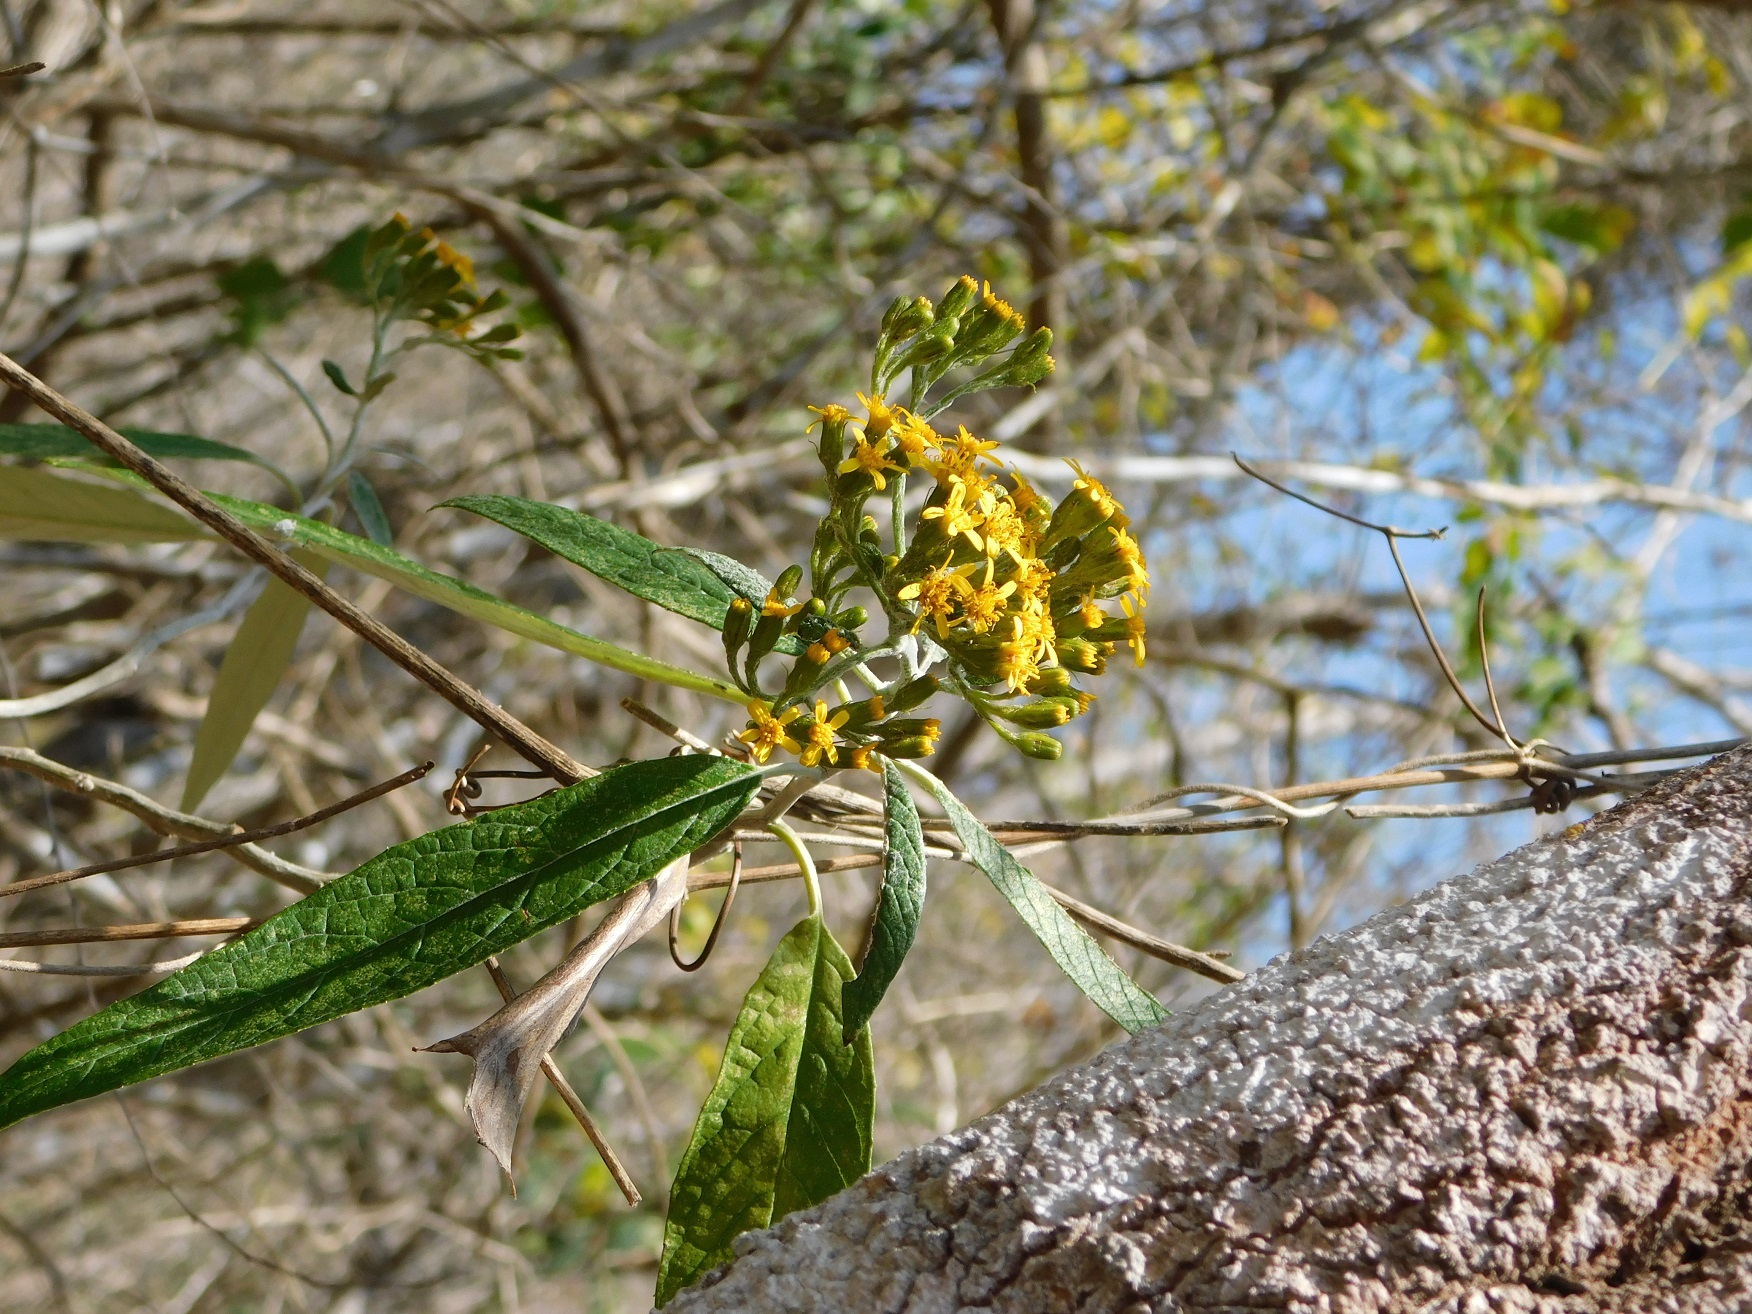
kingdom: Plantae
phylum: Tracheophyta
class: Magnoliopsida
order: Asterales
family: Asteraceae
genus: Verbesina
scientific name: Verbesina hypargyrea
